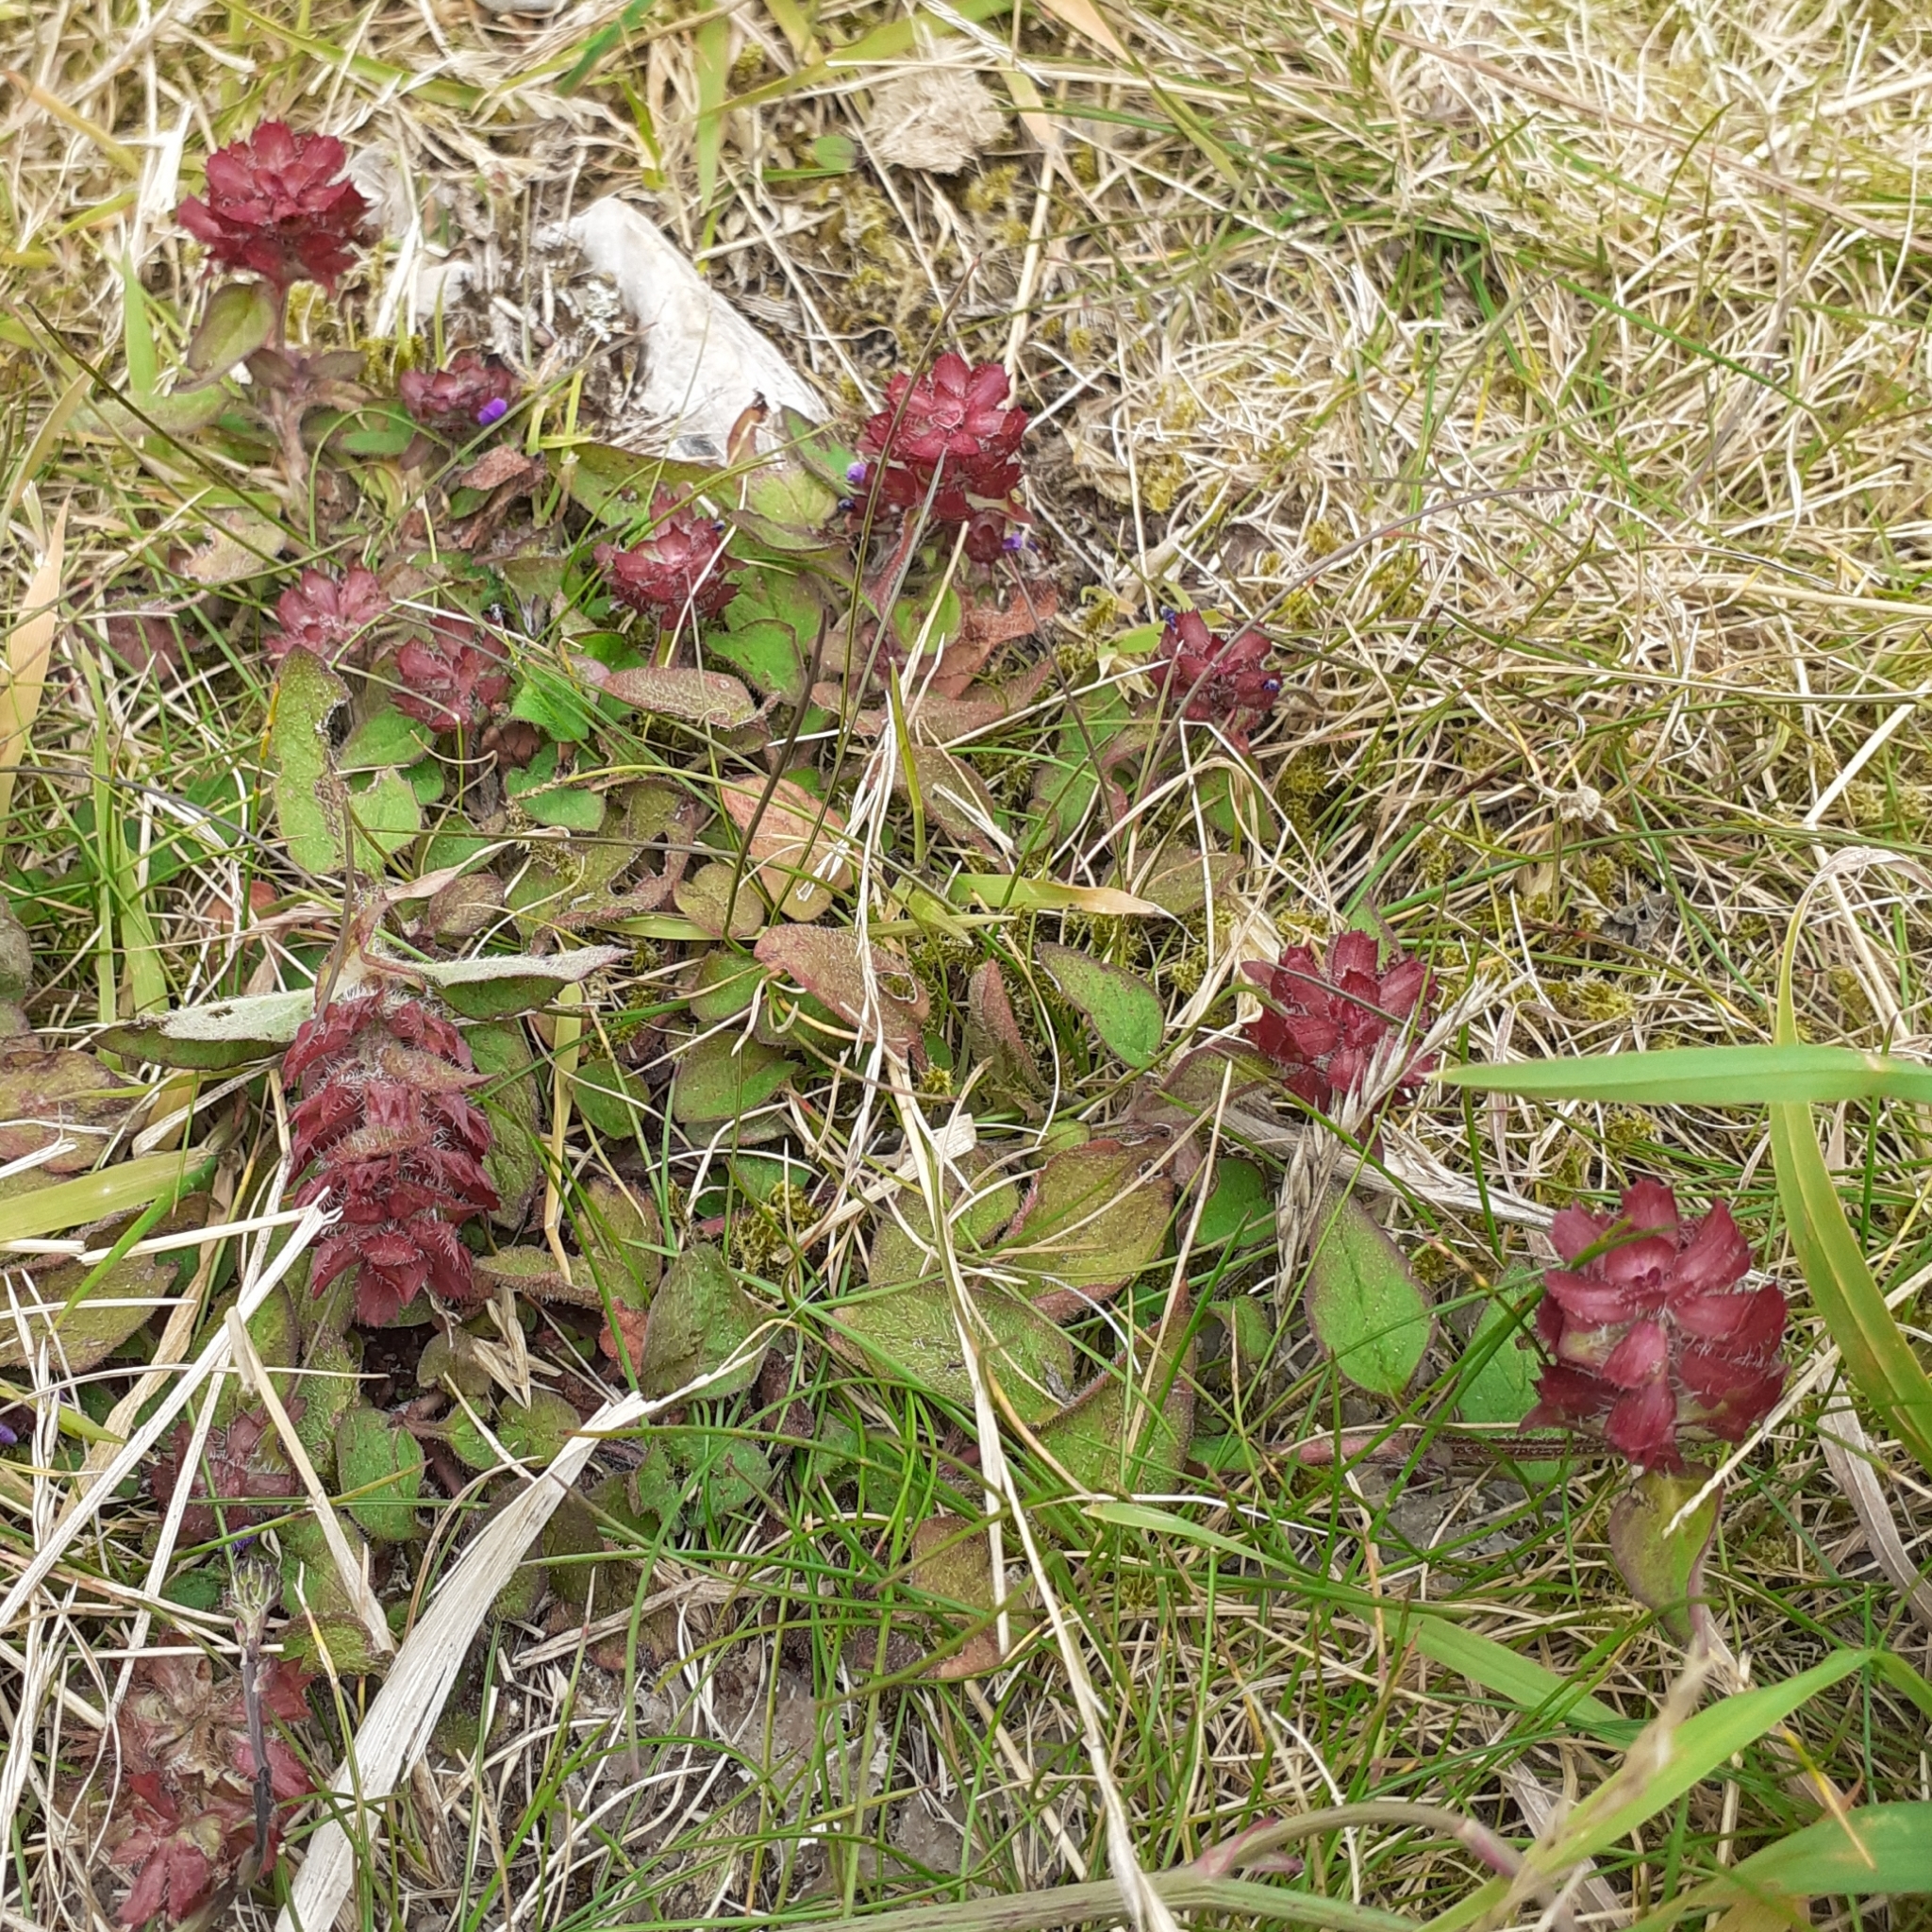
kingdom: Plantae
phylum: Tracheophyta
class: Magnoliopsida
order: Lamiales
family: Lamiaceae
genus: Prunella
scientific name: Prunella vulgaris
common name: Heal-all
